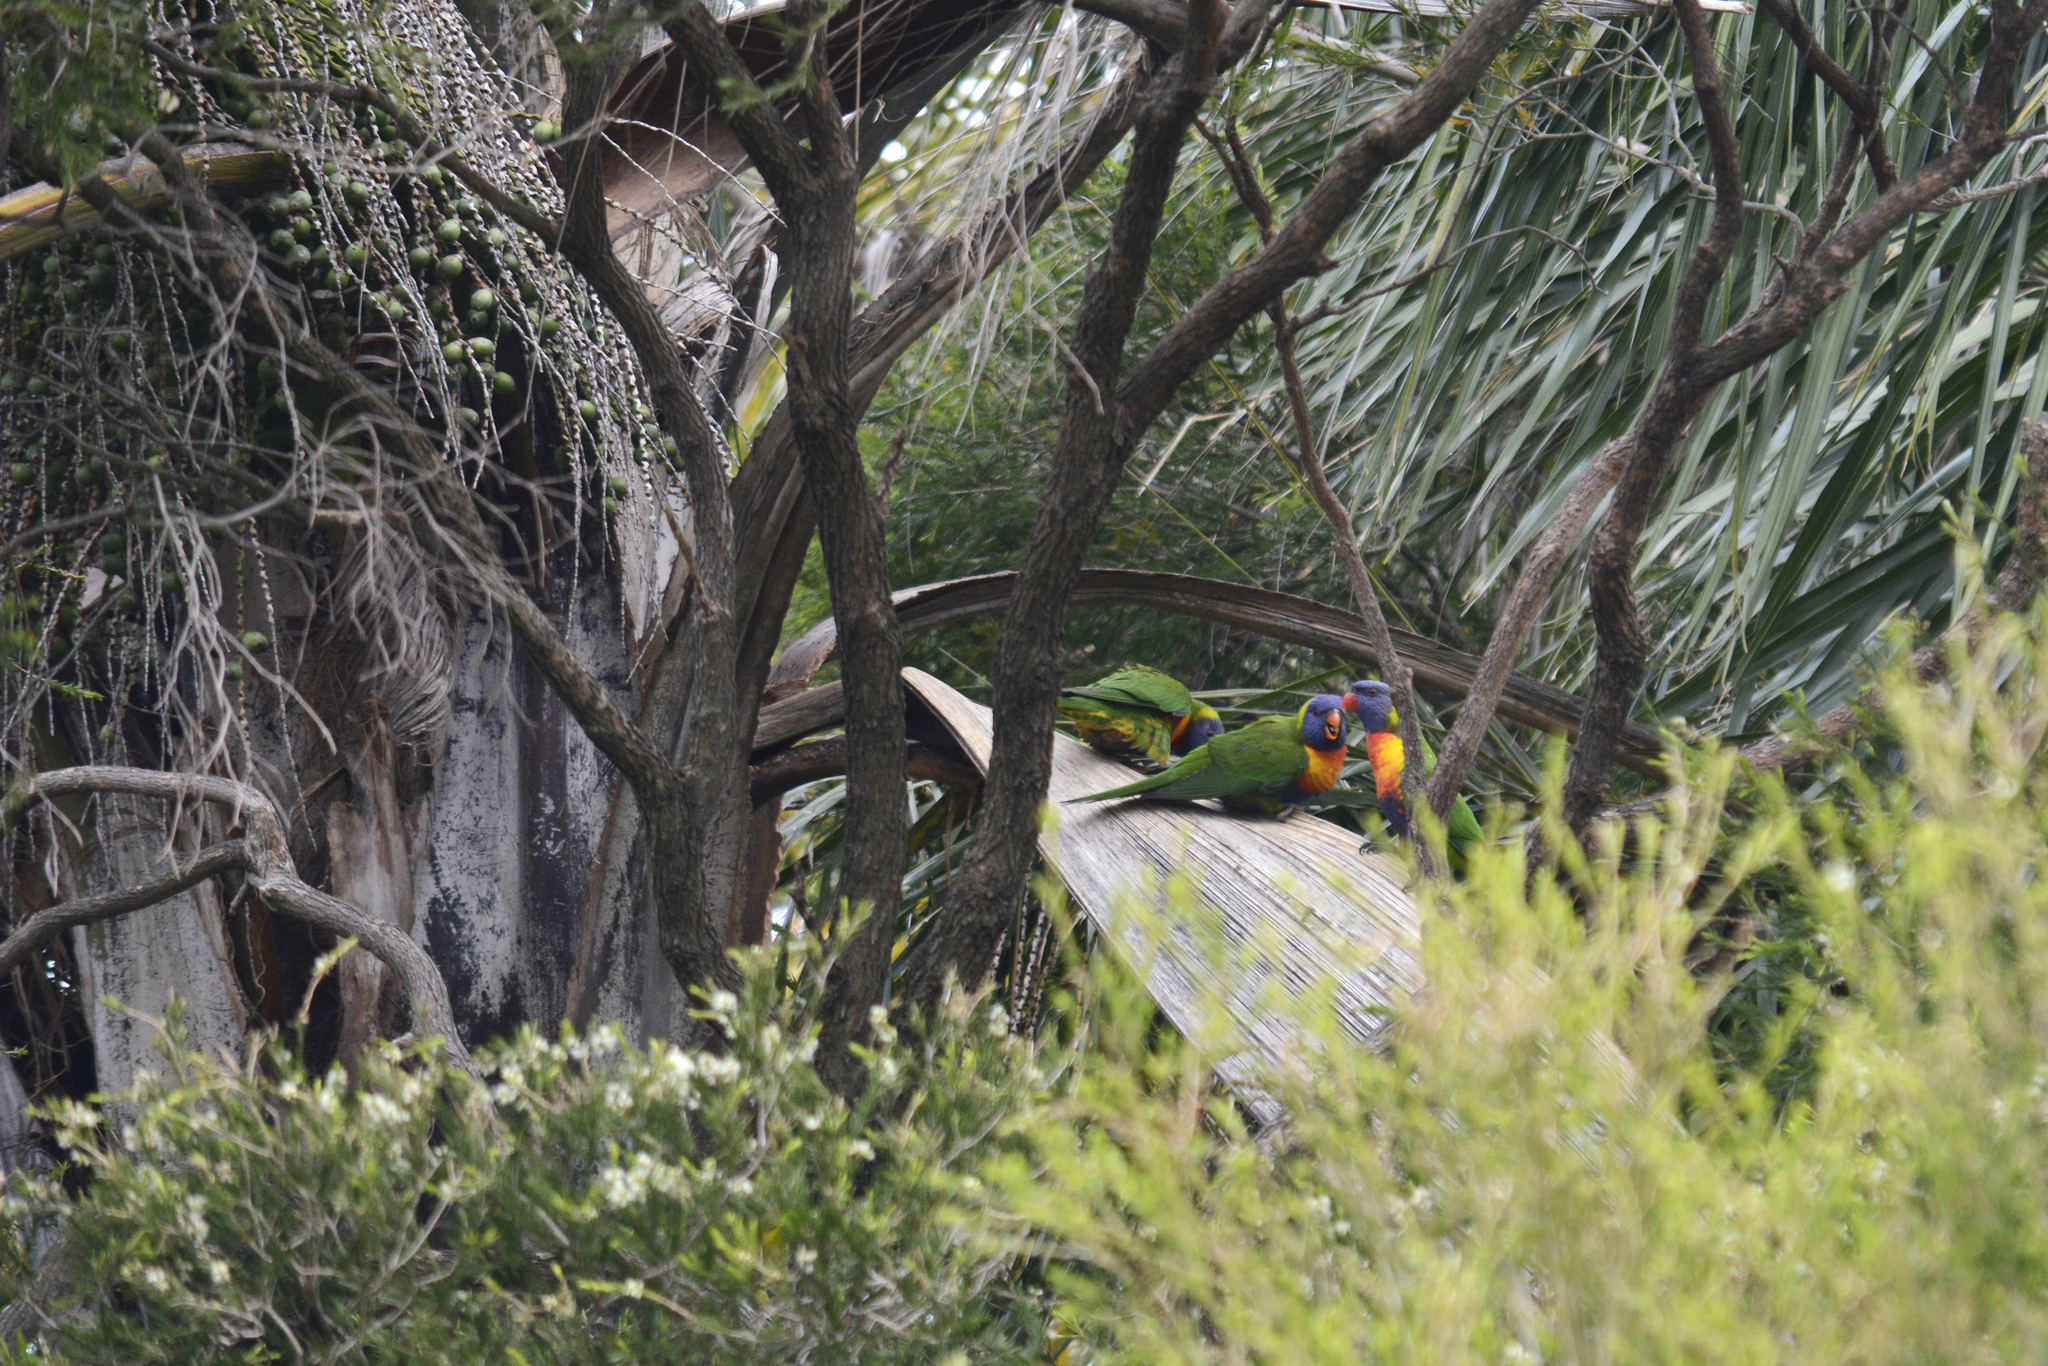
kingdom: Animalia
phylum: Chordata
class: Aves
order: Psittaciformes
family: Psittacidae
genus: Trichoglossus
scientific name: Trichoglossus haematodus
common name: Coconut lorikeet
